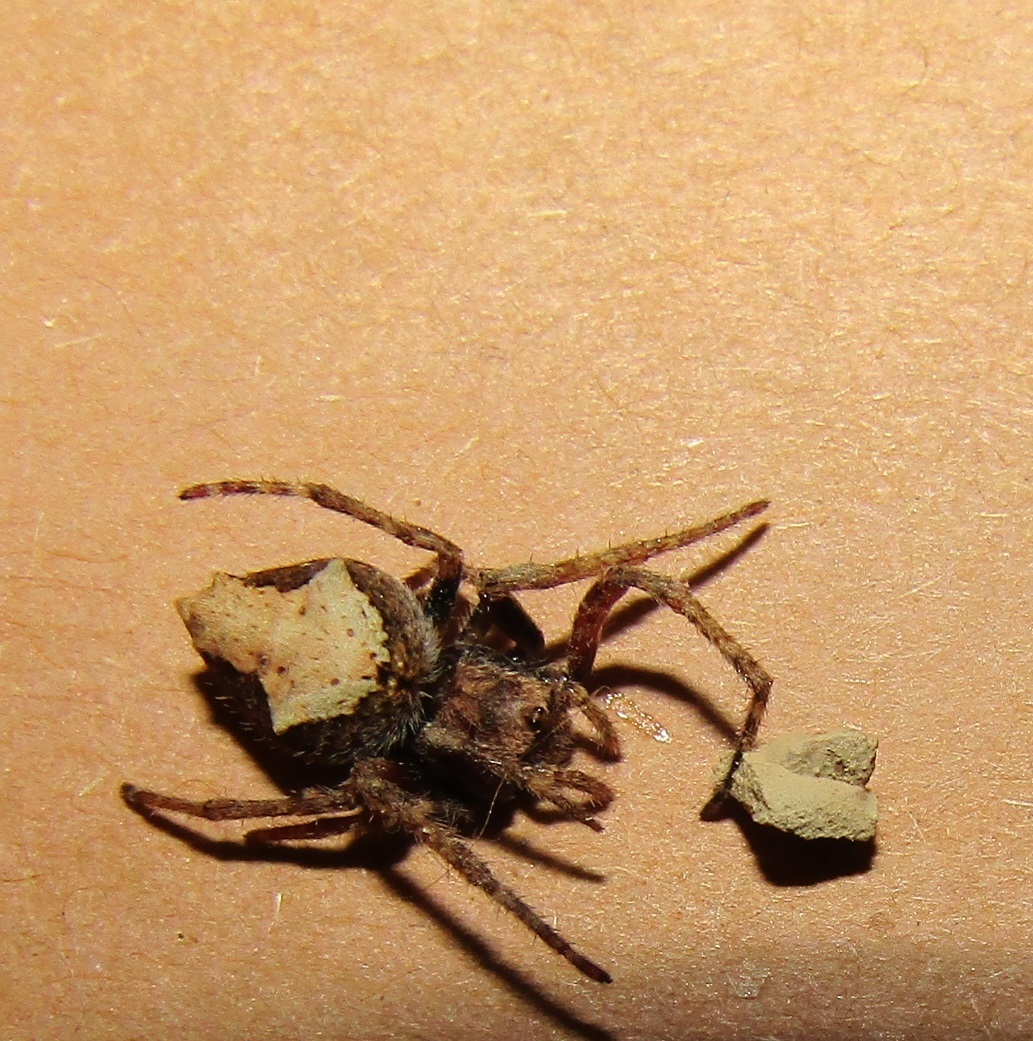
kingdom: Animalia
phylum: Arthropoda
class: Arachnida
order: Araneae
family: Araneidae
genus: Eriophora
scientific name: Eriophora pustulosa
